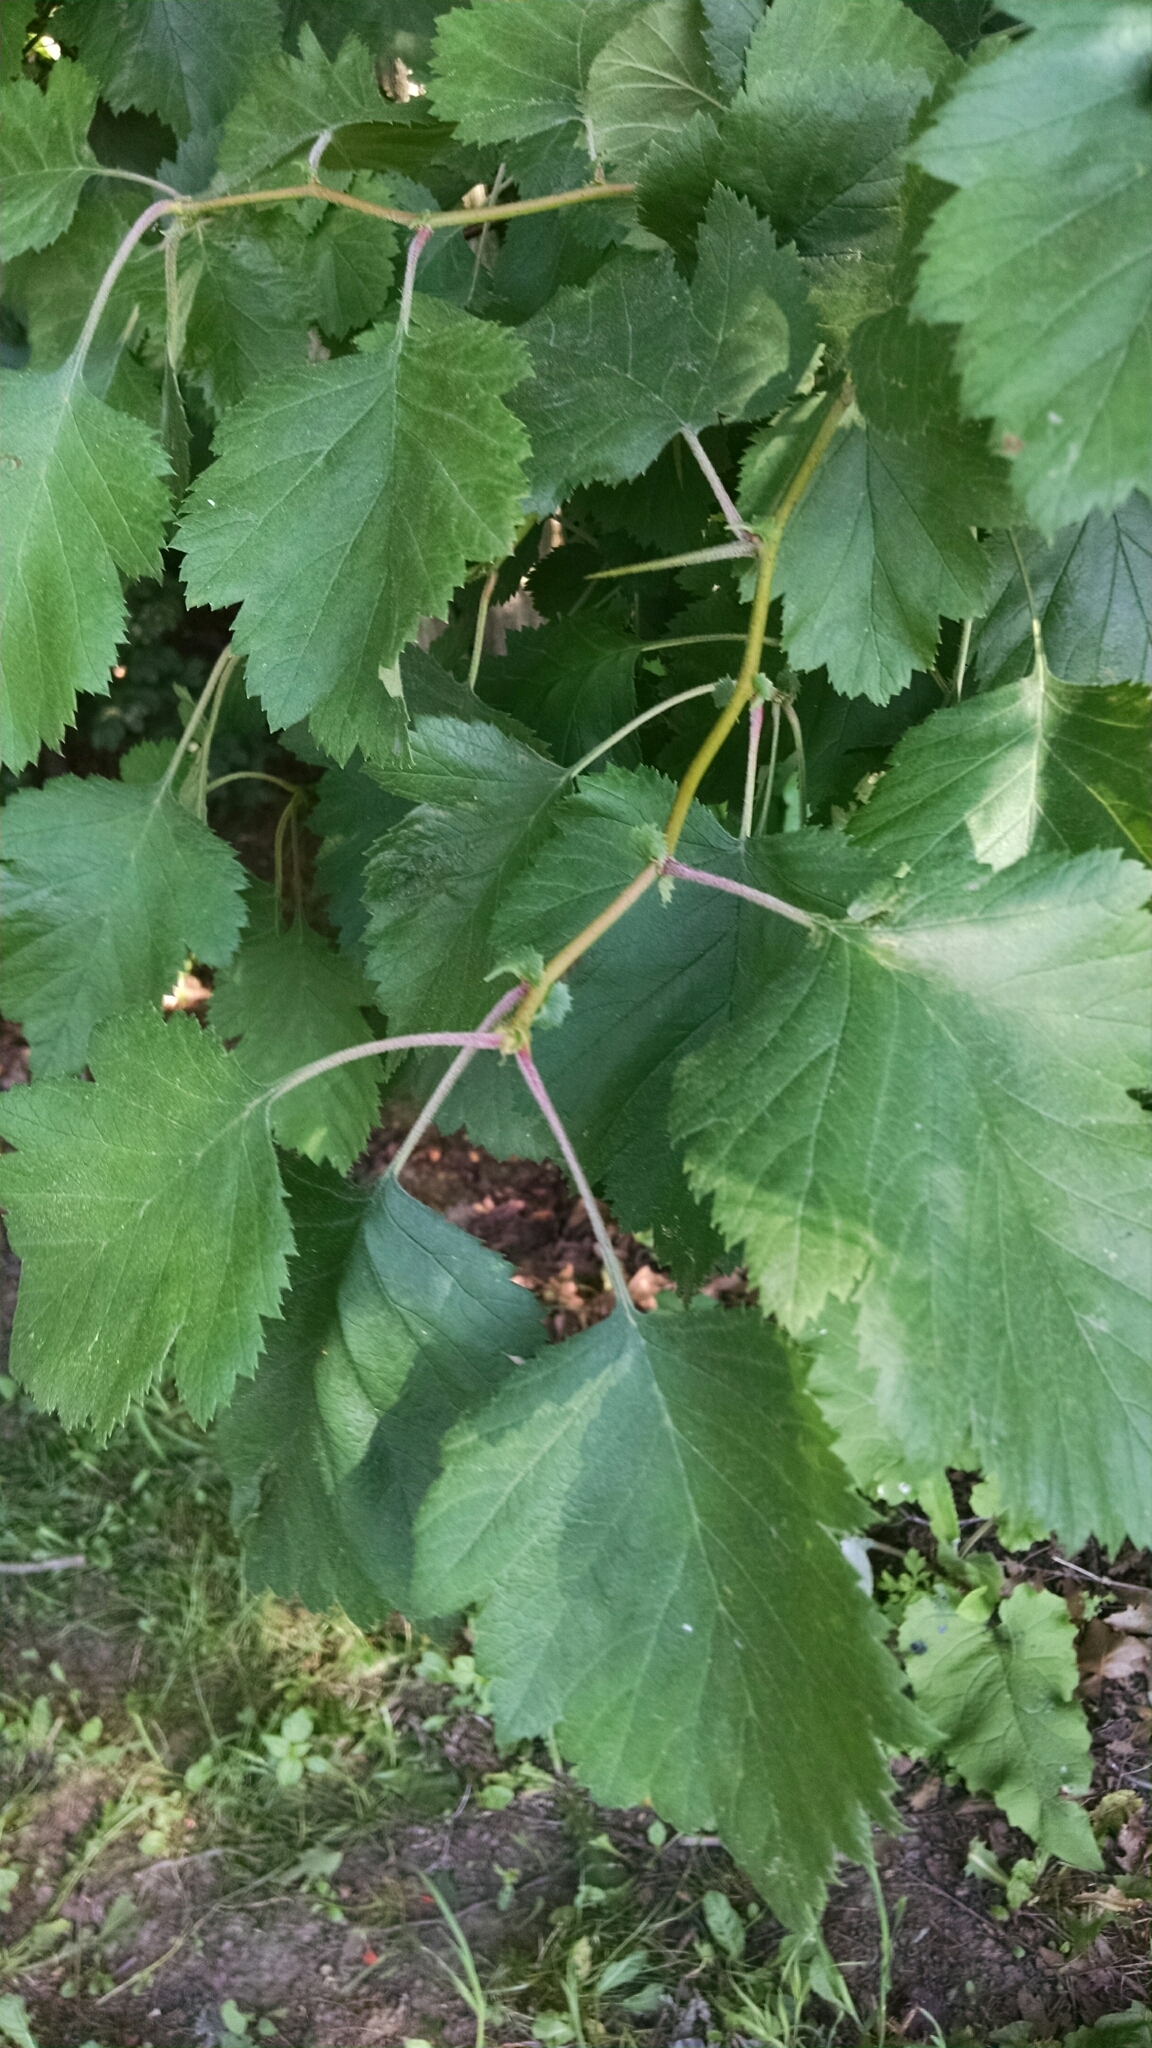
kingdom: Plantae
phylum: Tracheophyta
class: Magnoliopsida
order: Rosales
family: Rosaceae
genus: Crataegus
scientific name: Crataegus mollis
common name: Downy hawthorn
